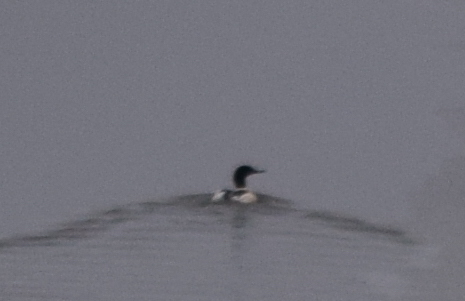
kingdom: Animalia
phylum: Chordata
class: Aves
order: Anseriformes
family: Anatidae
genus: Mergus
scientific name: Mergus merganser
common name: Common merganser
